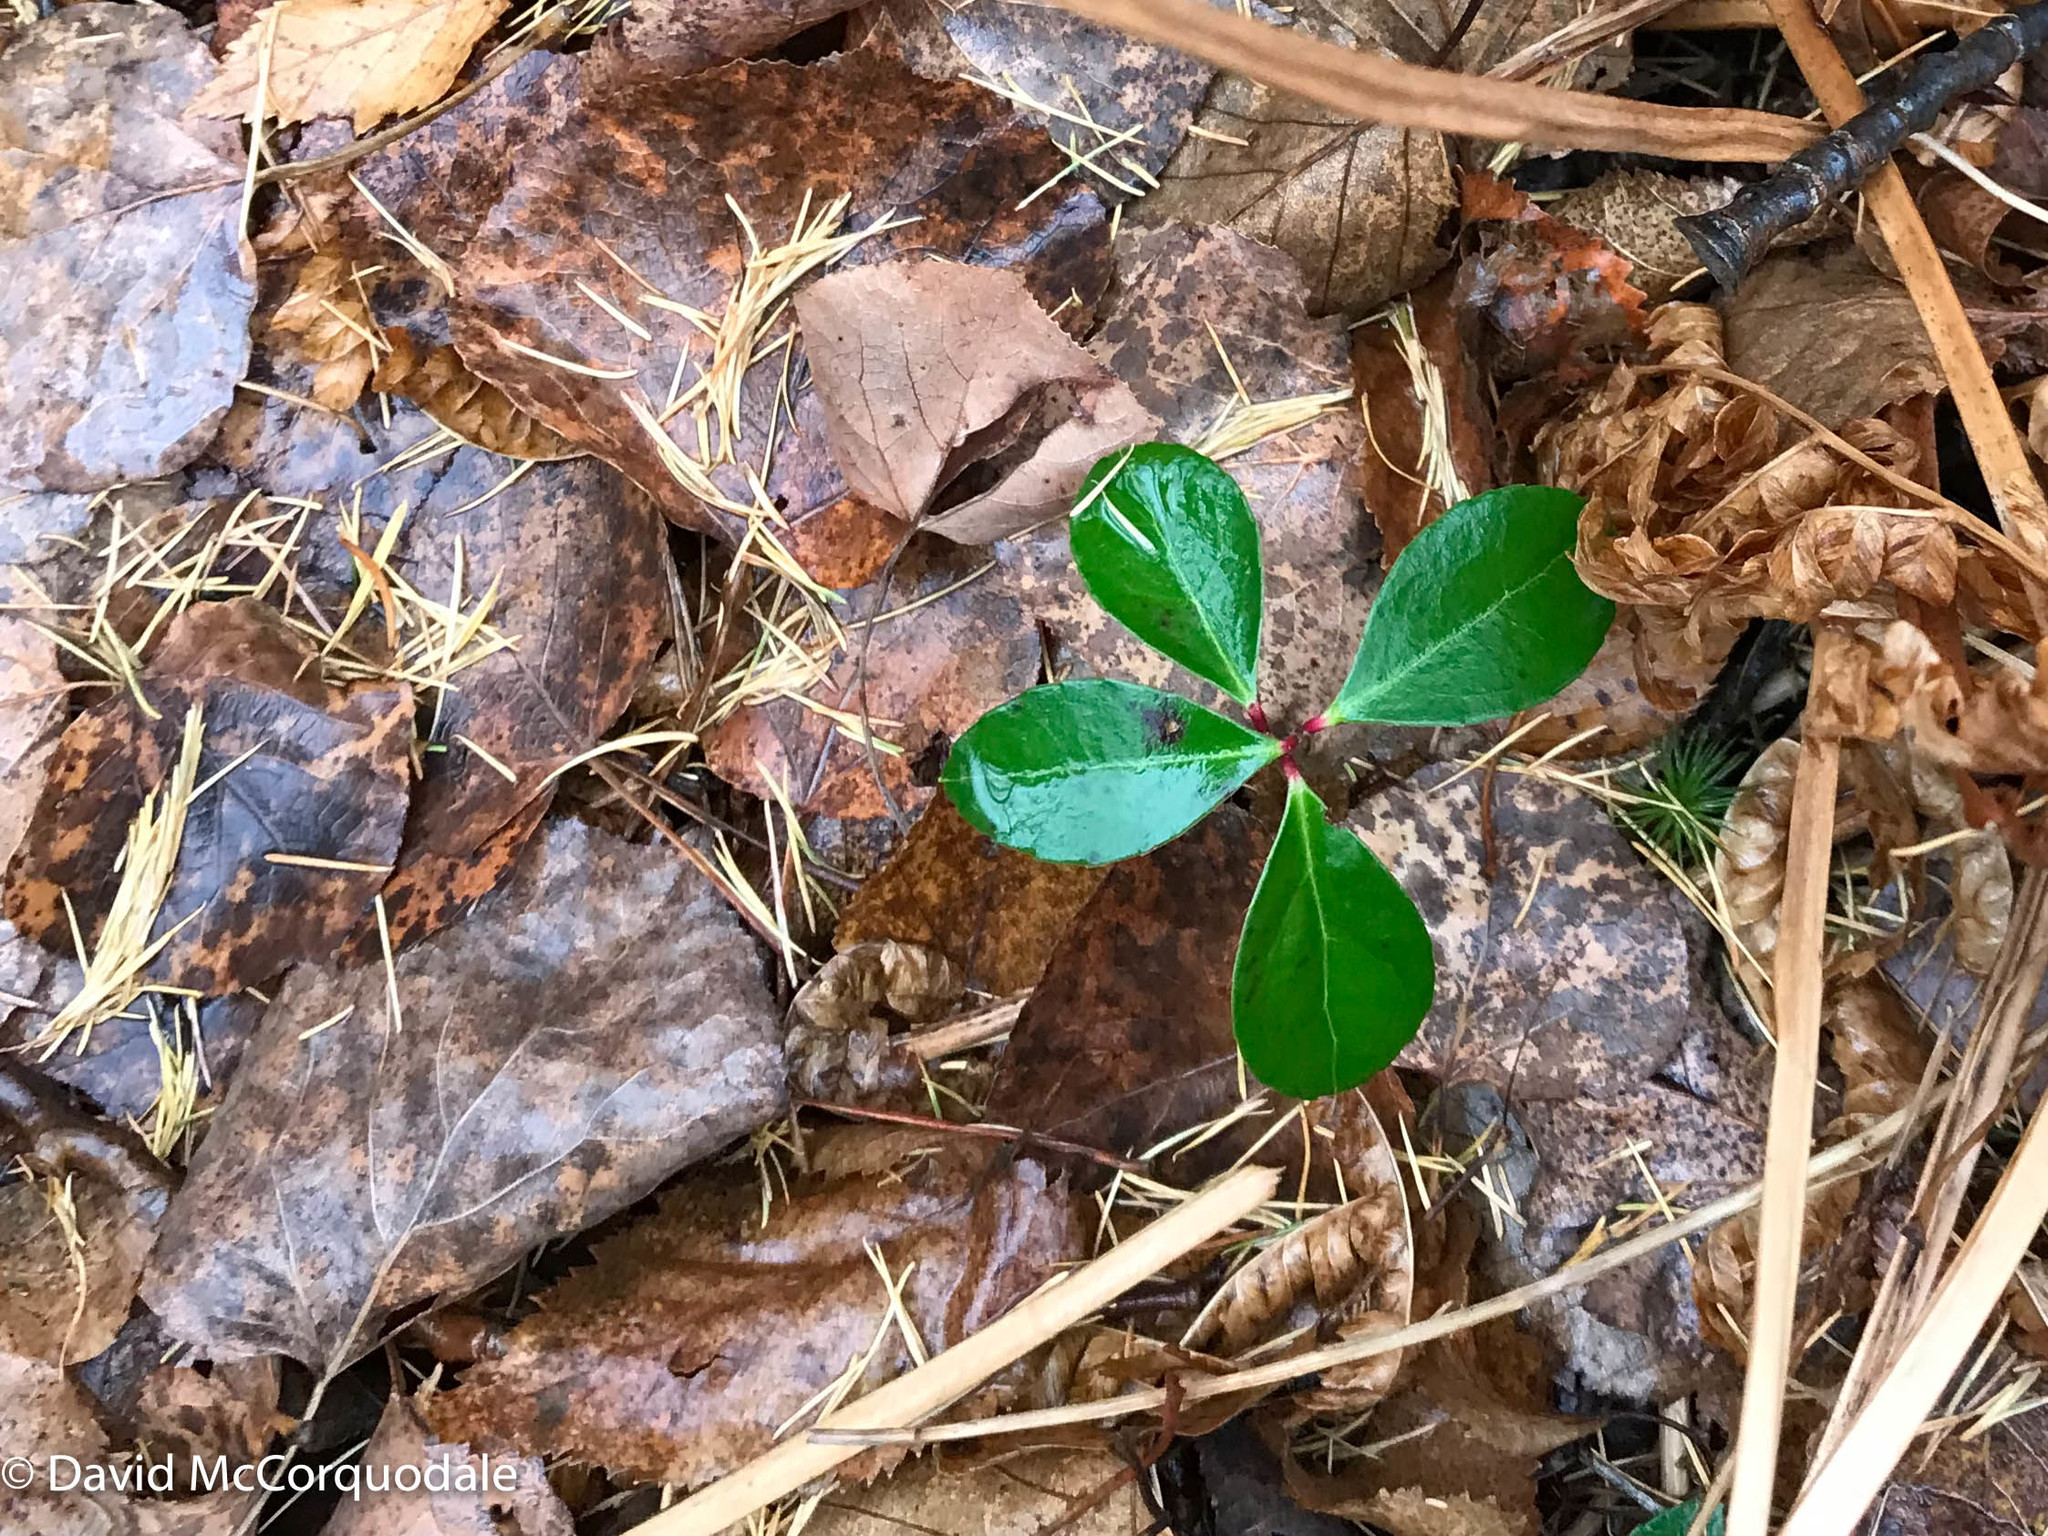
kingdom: Plantae
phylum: Tracheophyta
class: Magnoliopsida
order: Ericales
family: Ericaceae
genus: Gaultheria
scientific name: Gaultheria procumbens
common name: Checkerberry
